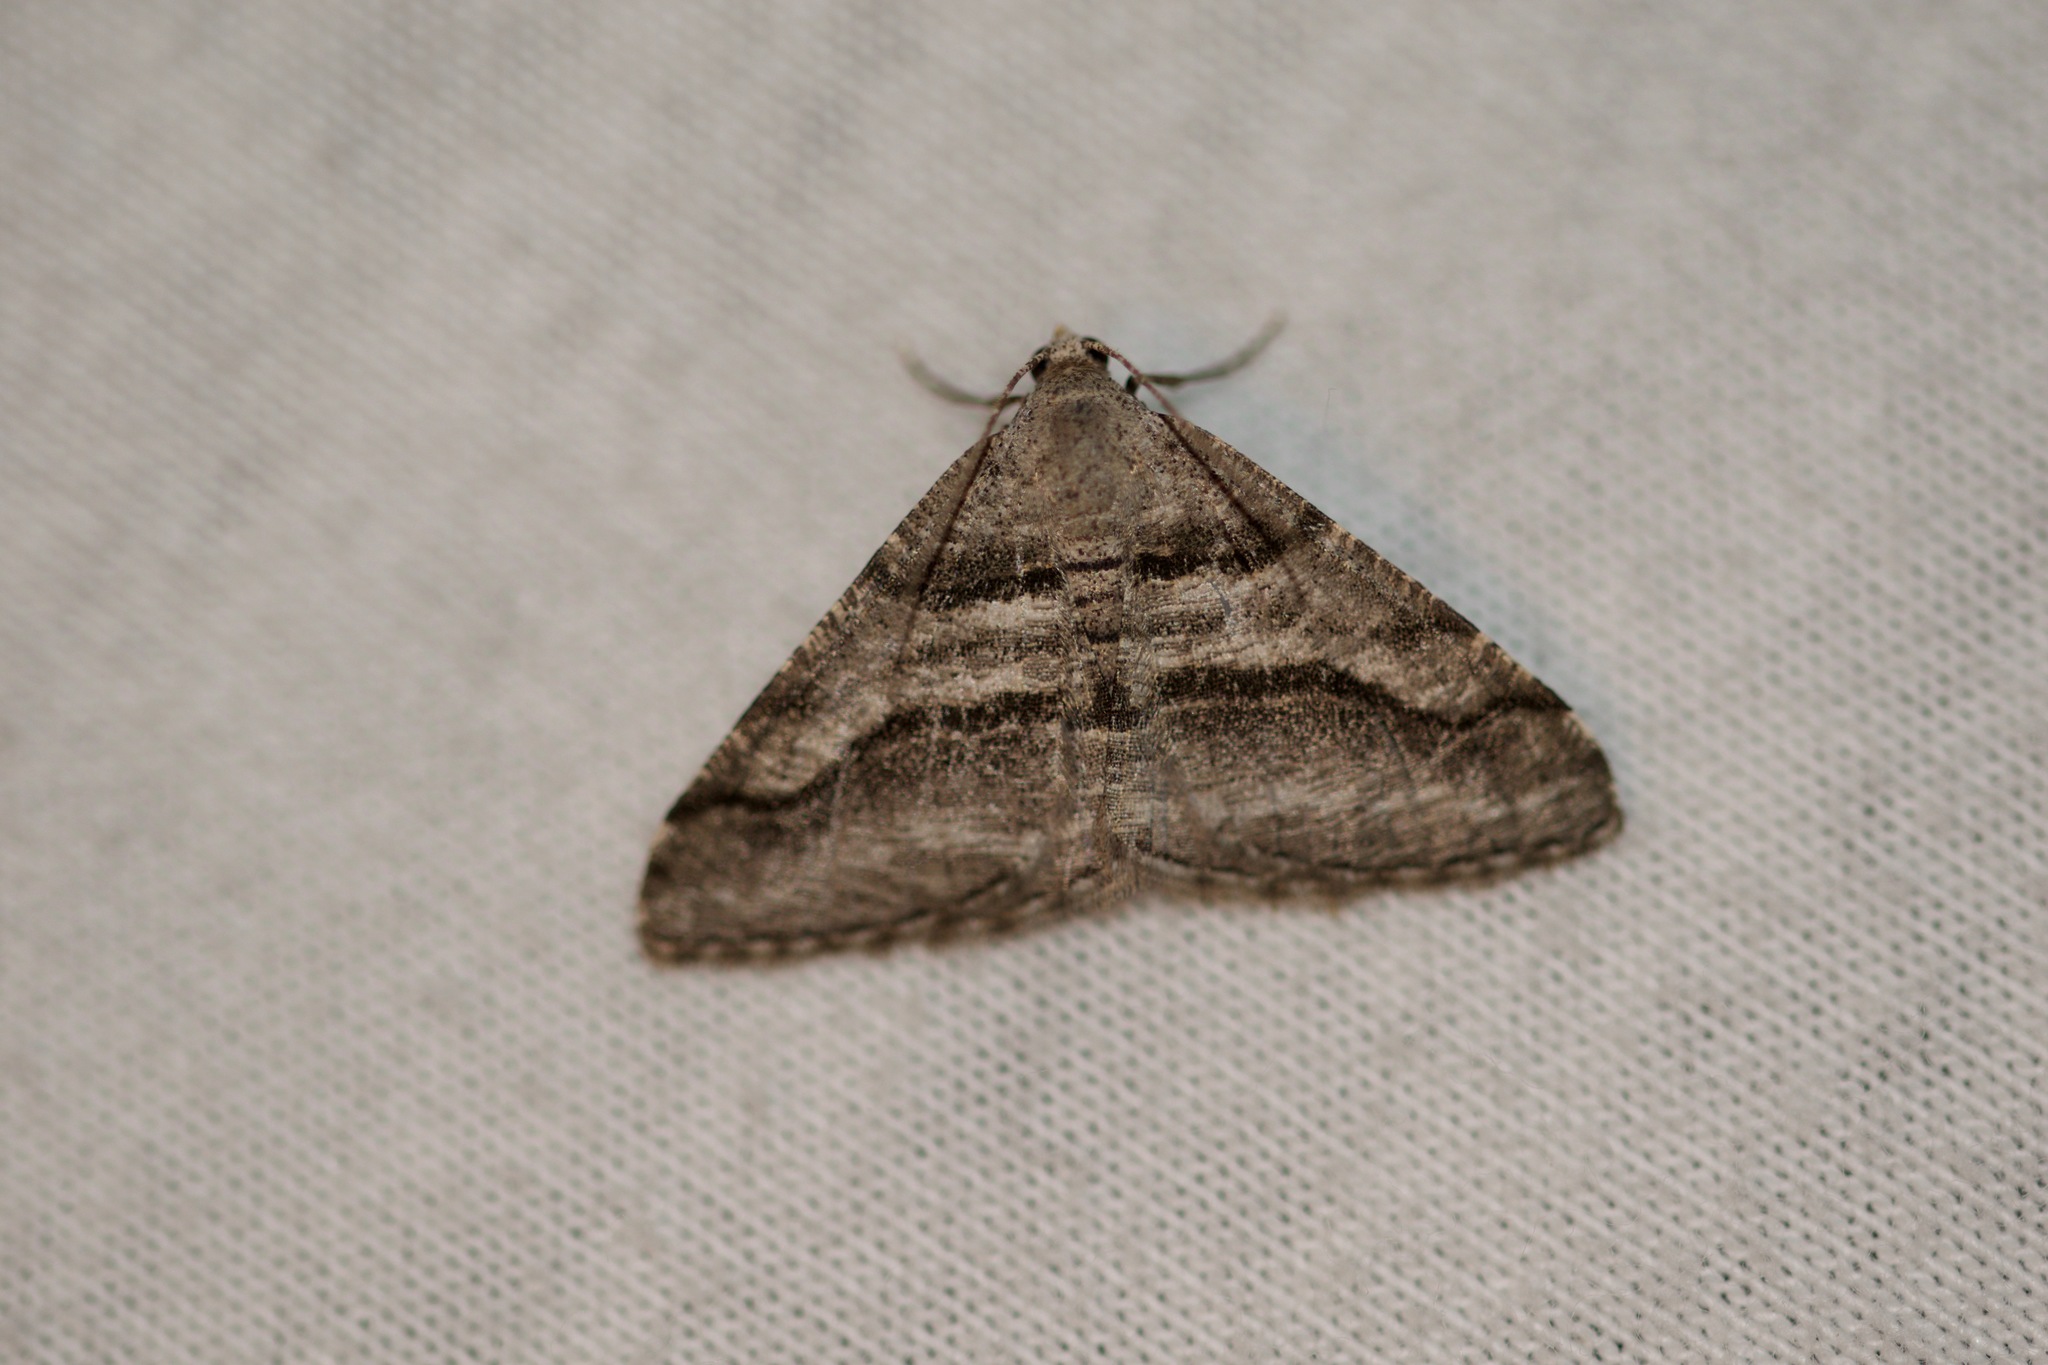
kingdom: Animalia
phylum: Arthropoda
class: Insecta
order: Lepidoptera
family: Geometridae
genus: Digrammia
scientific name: Digrammia continuata
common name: Curve-lined angle
